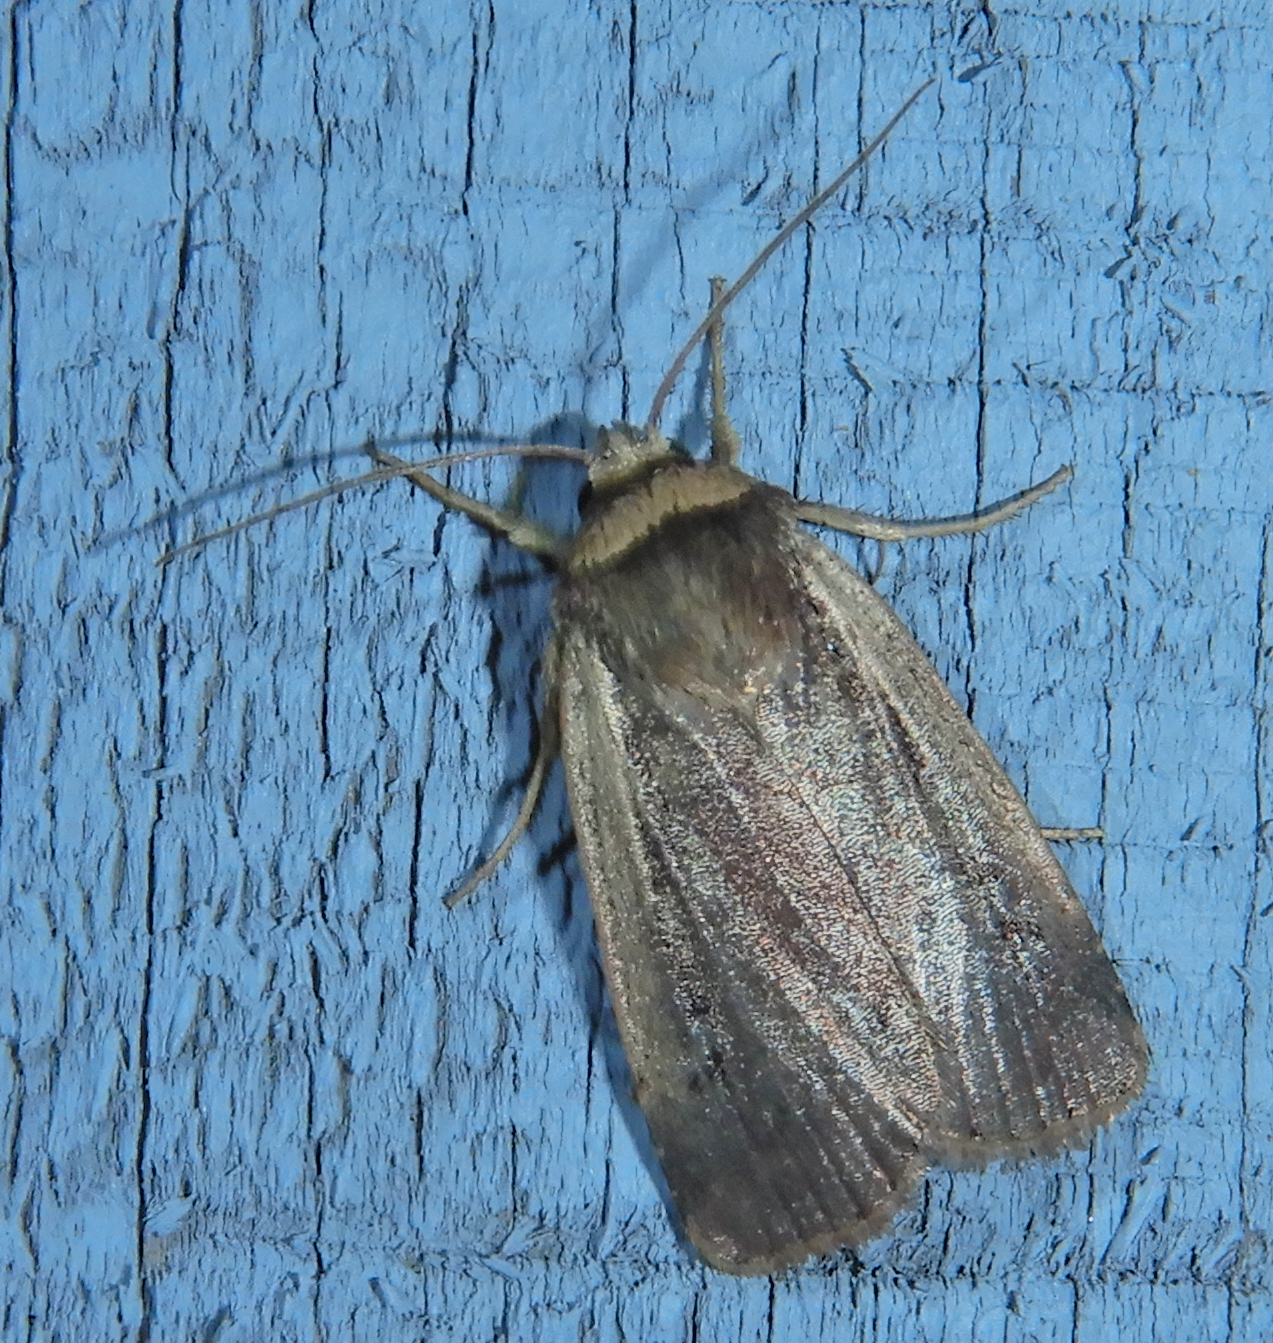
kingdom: Animalia
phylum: Arthropoda
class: Insecta
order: Lepidoptera
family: Noctuidae
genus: Ochropleura
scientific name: Ochropleura implecta
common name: Flame-shouldered dart
